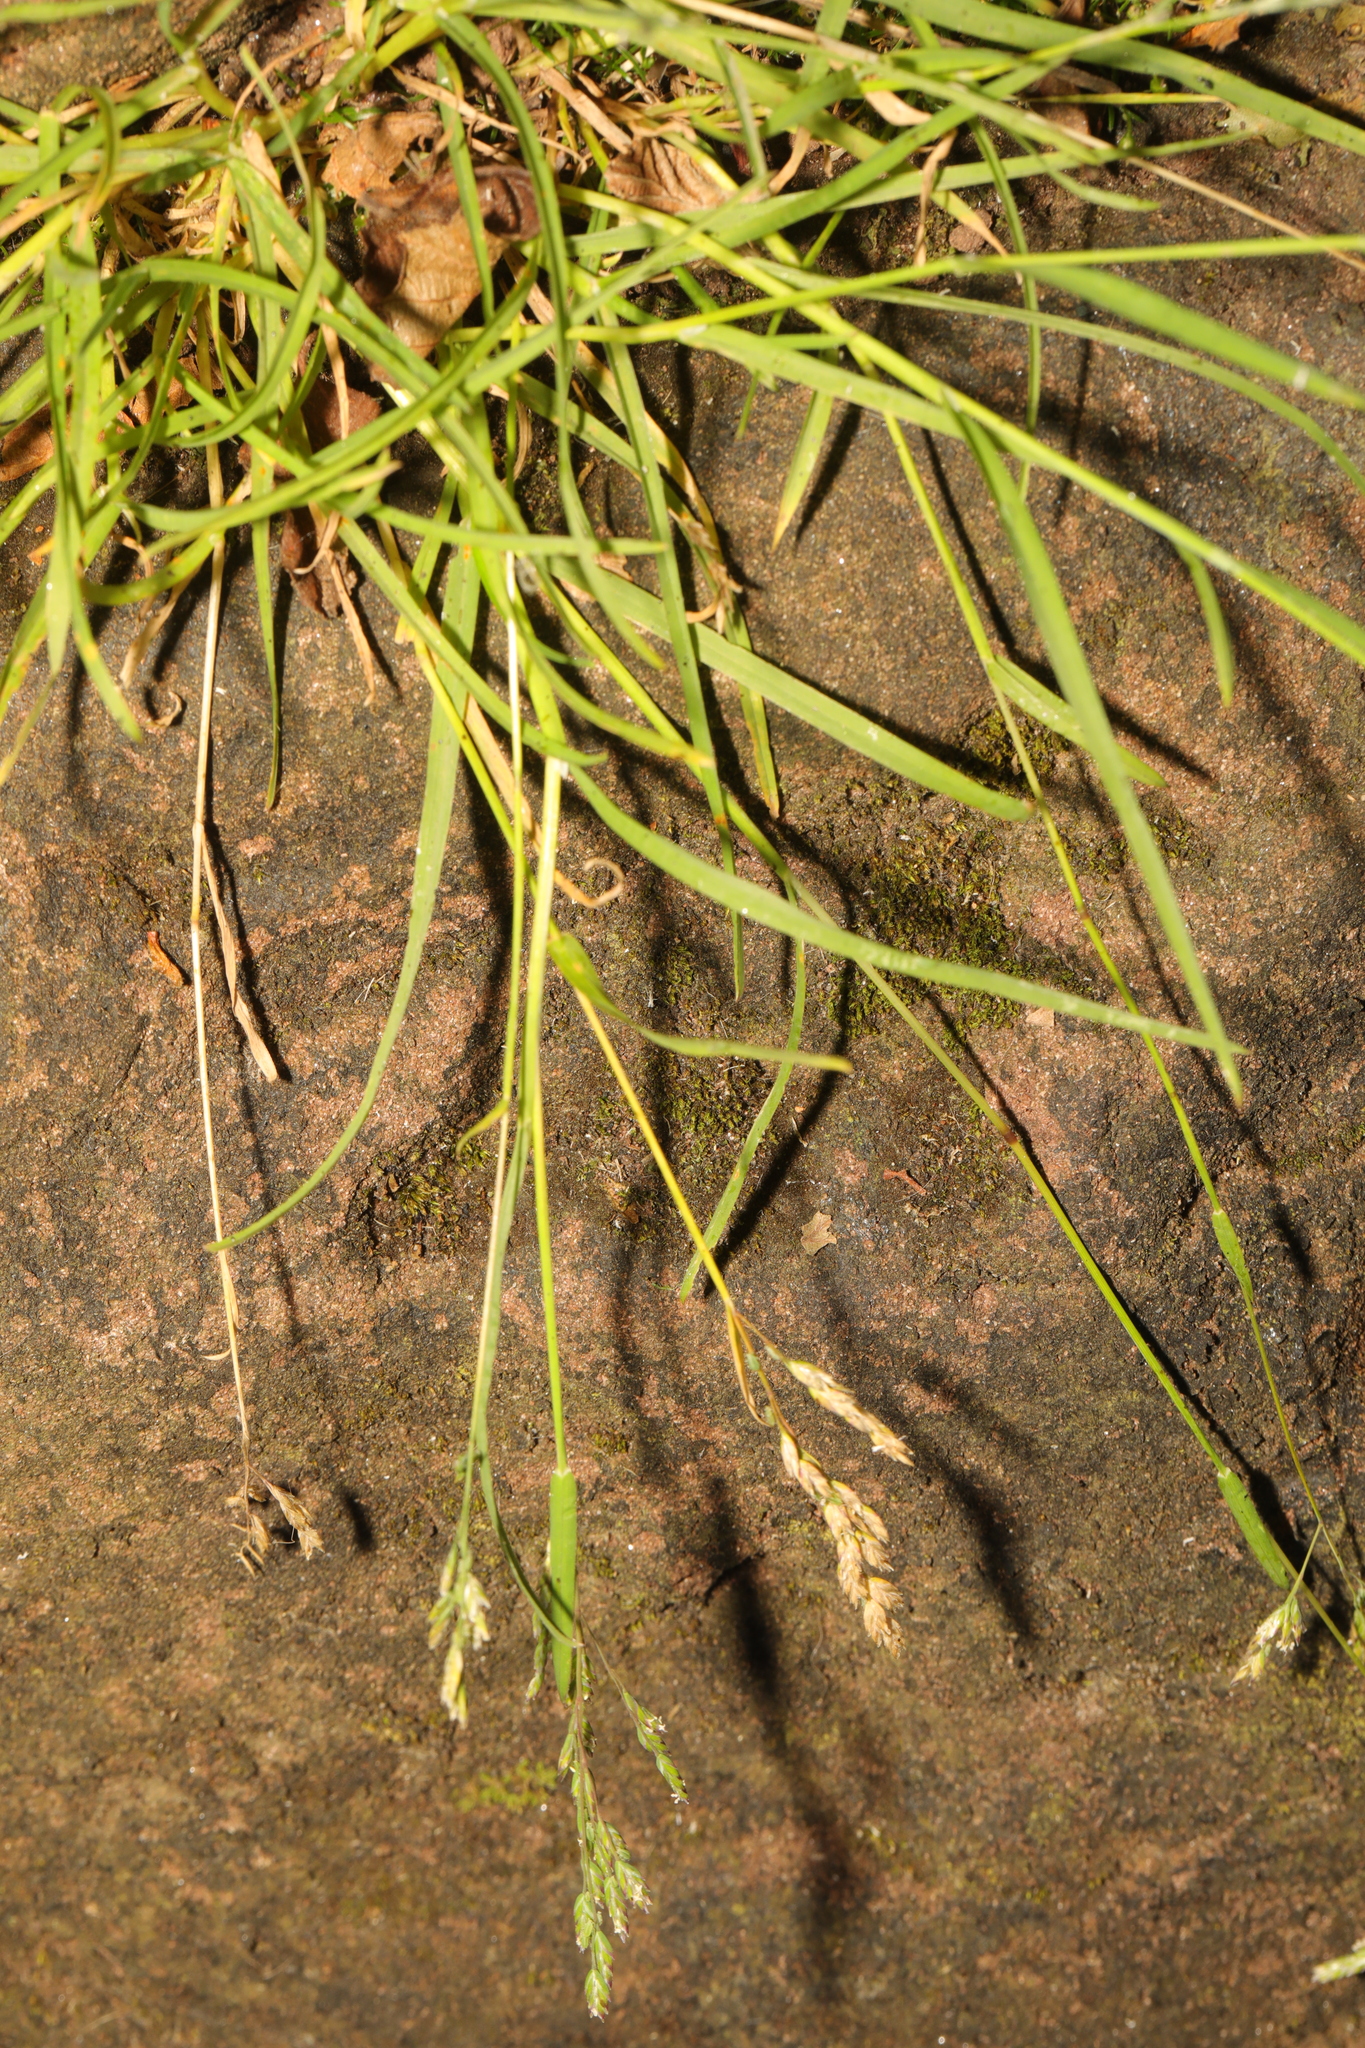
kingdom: Plantae
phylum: Tracheophyta
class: Liliopsida
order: Poales
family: Poaceae
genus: Poa
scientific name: Poa annua
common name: Annual bluegrass
